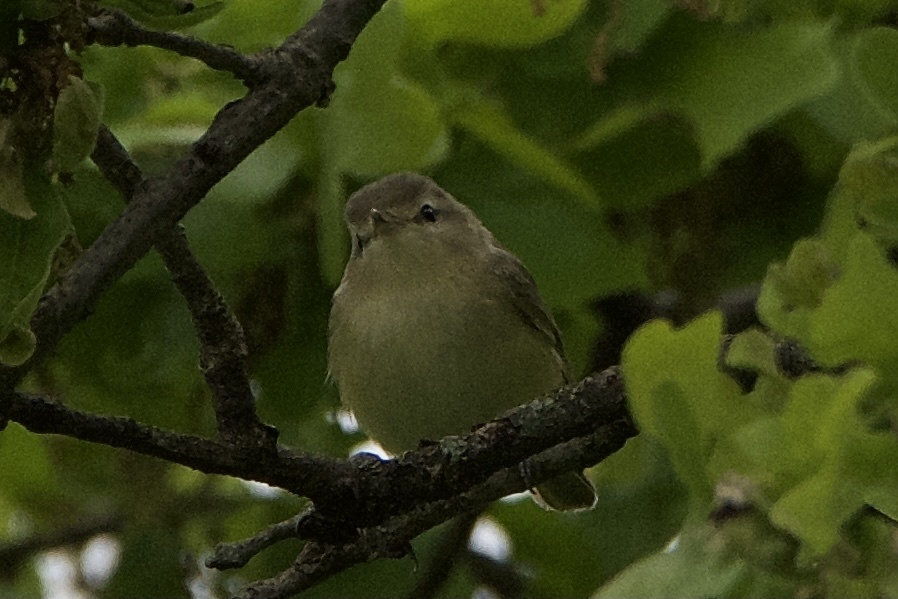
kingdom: Animalia
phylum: Chordata
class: Aves
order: Passeriformes
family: Vireonidae
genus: Vireo
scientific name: Vireo gilvus
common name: Warbling vireo
